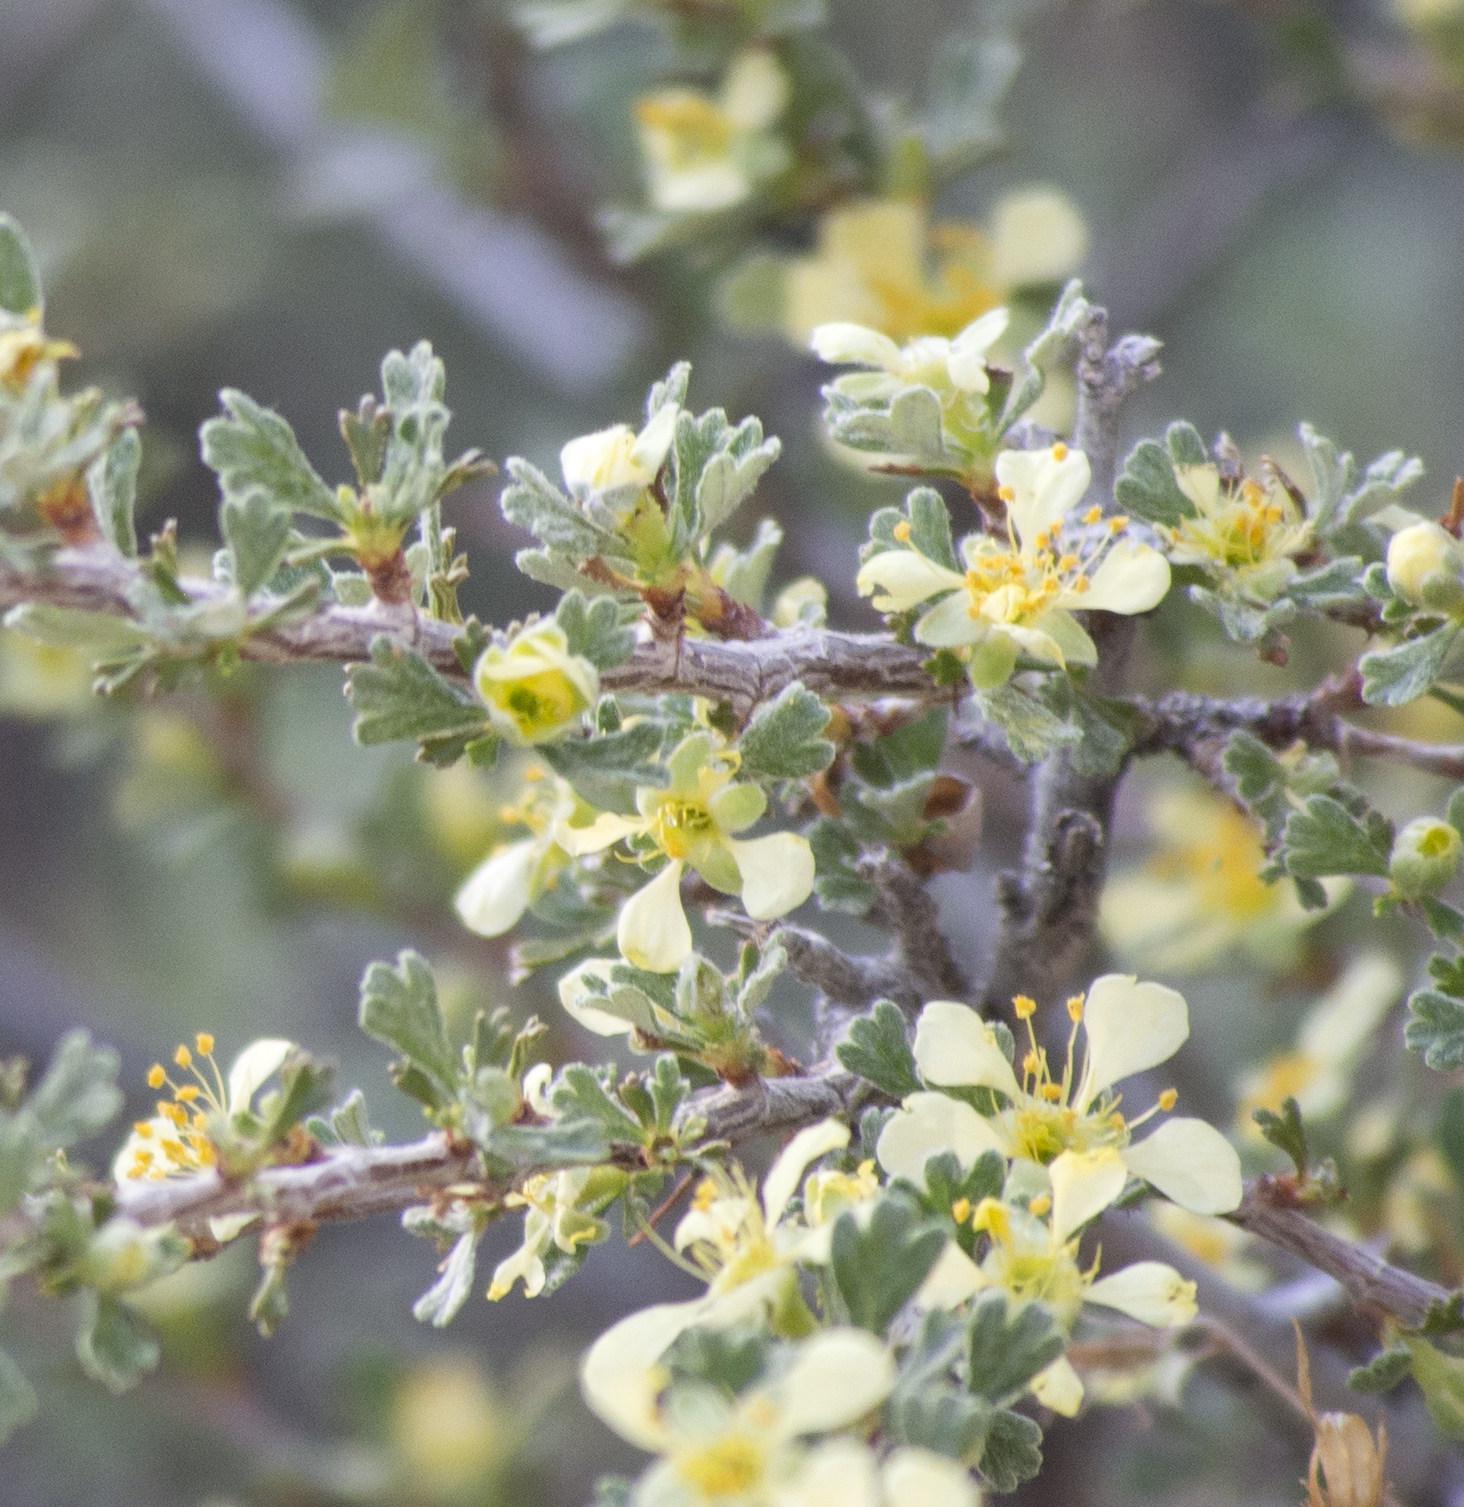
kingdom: Plantae
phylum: Tracheophyta
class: Magnoliopsida
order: Rosales
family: Rosaceae
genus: Purshia
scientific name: Purshia tridentata
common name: Antelope bitterbrush
